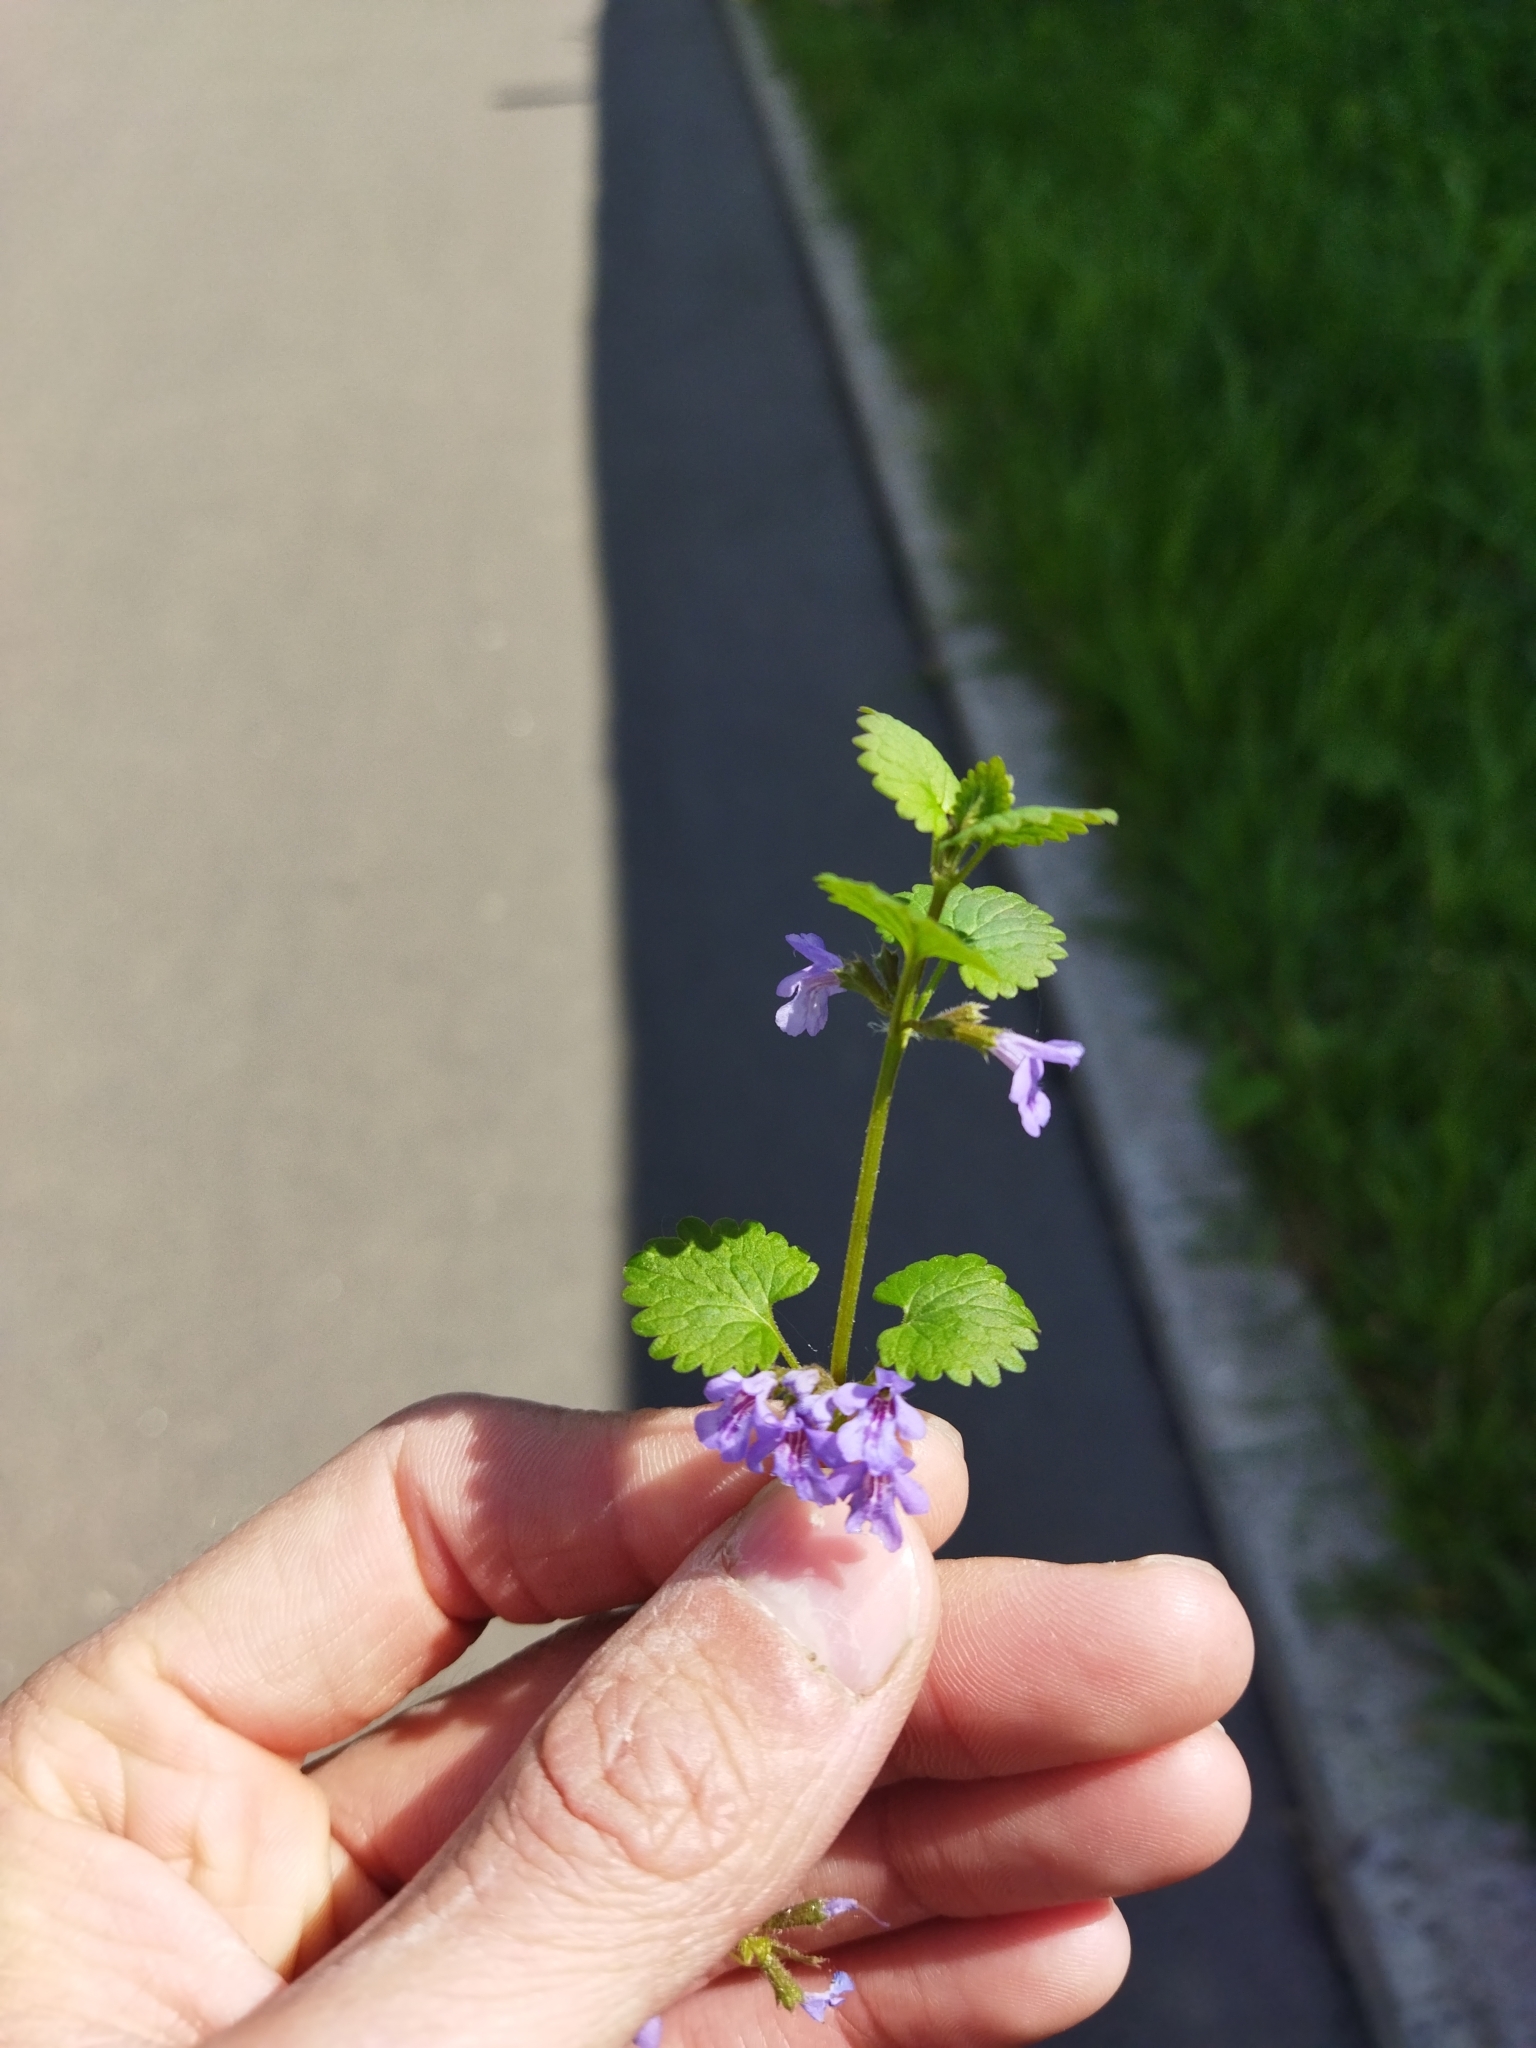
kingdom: Plantae
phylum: Tracheophyta
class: Magnoliopsida
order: Lamiales
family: Lamiaceae
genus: Glechoma
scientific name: Glechoma hederacea
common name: Ground ivy
